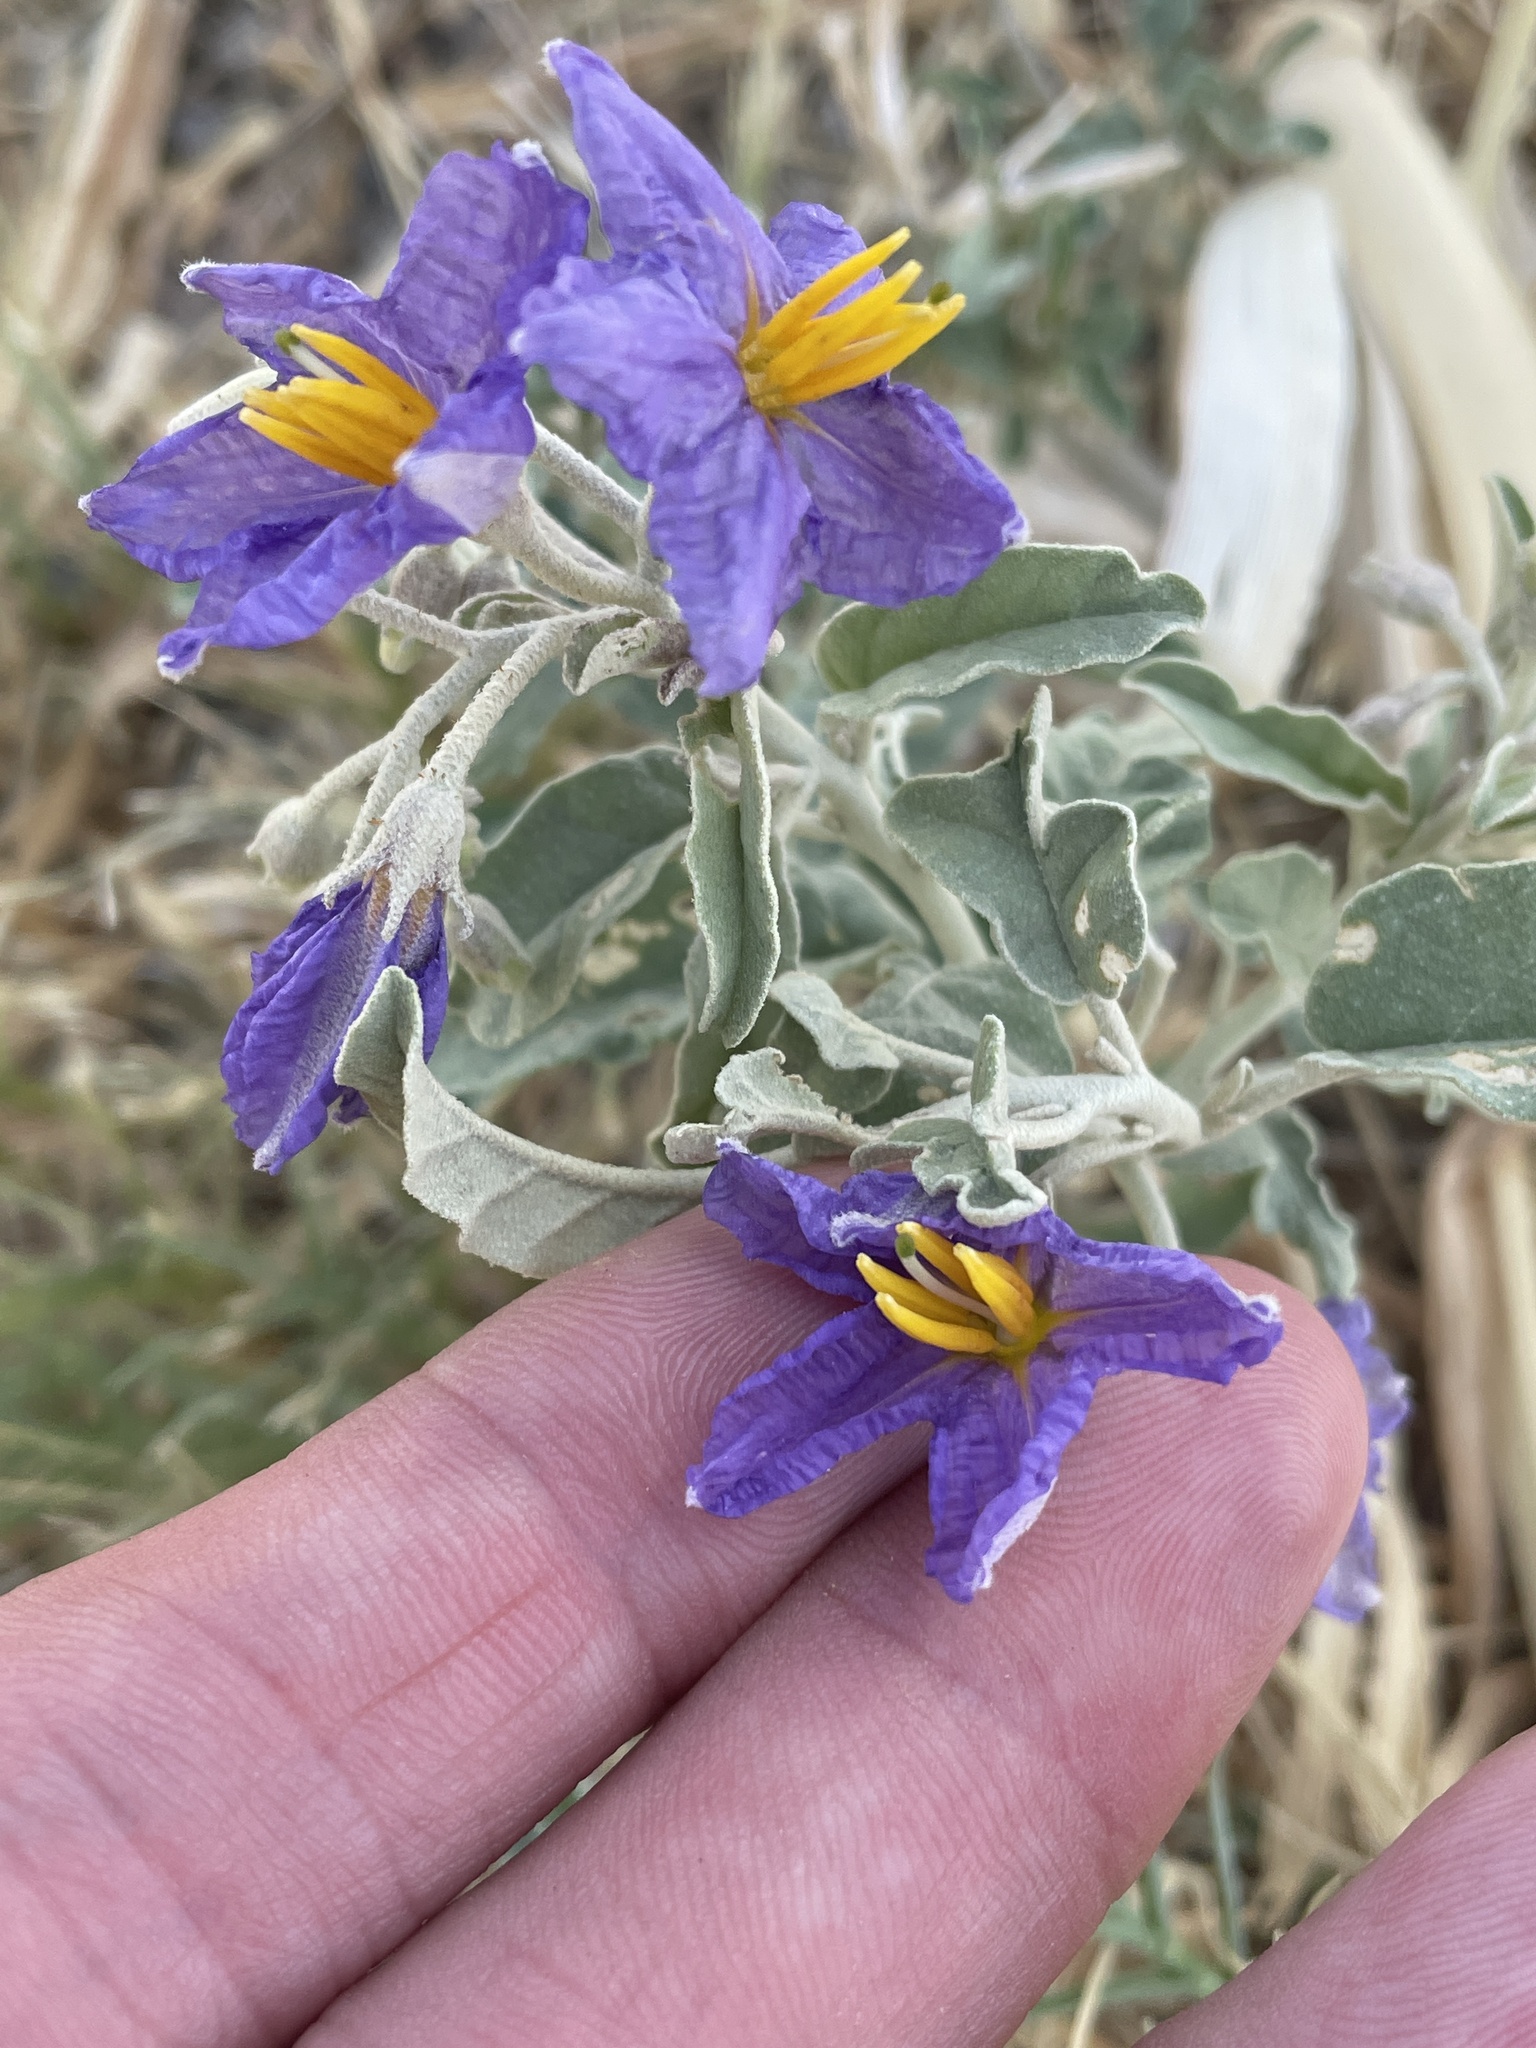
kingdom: Plantae
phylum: Tracheophyta
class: Magnoliopsida
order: Solanales
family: Solanaceae
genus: Solanum
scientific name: Solanum elaeagnifolium
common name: Silverleaf nightshade
